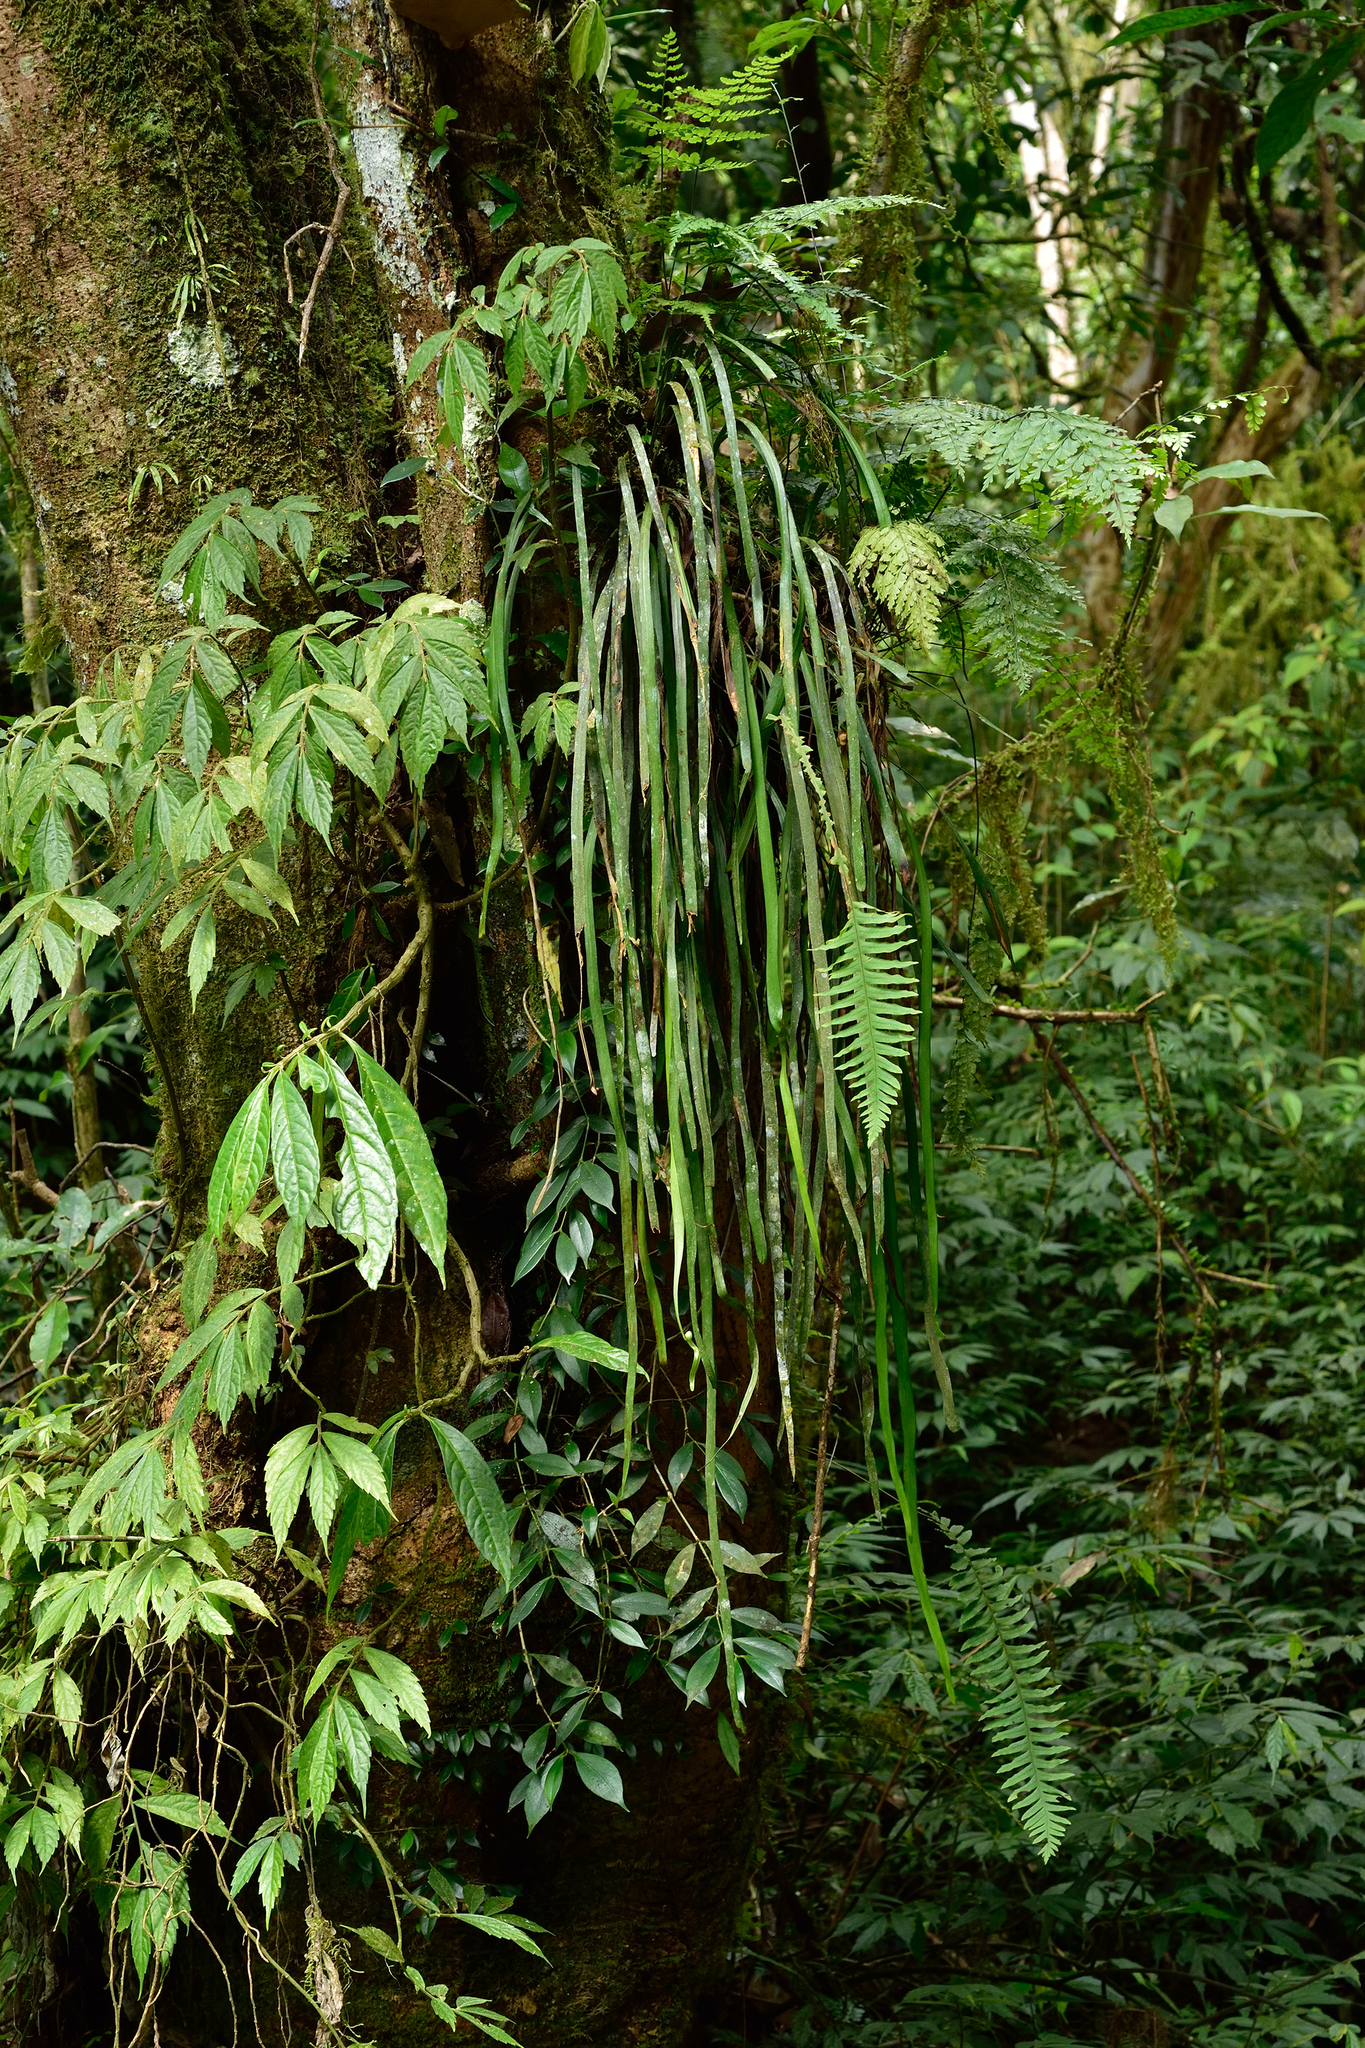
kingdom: Plantae
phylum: Tracheophyta
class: Polypodiopsida
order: Polypodiales
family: Pteridaceae
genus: Haplopteris
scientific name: Haplopteris elongata
